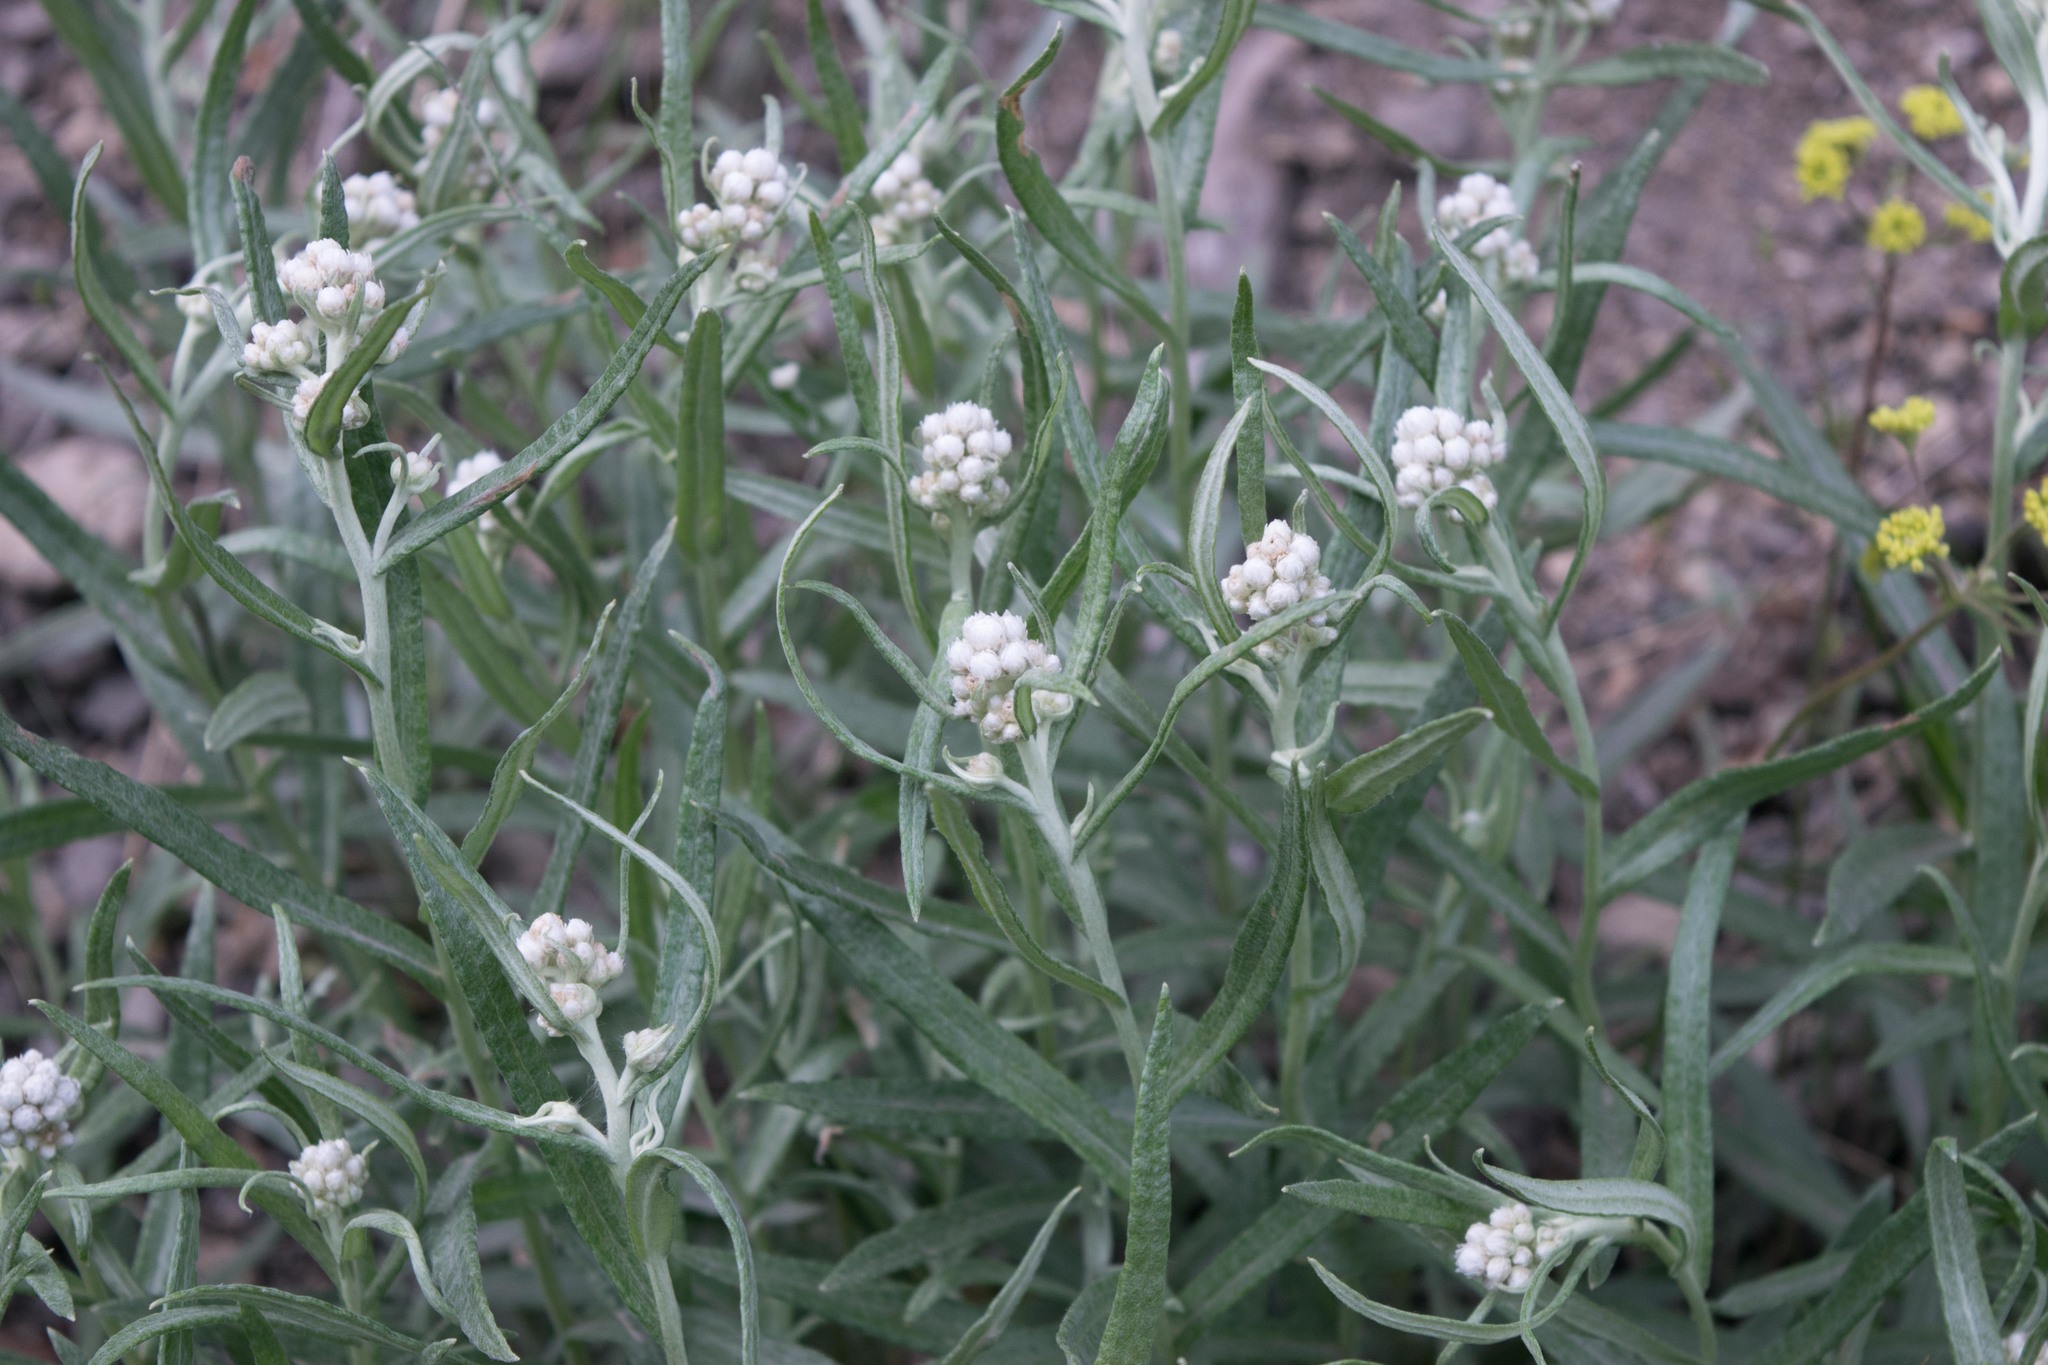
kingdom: Plantae
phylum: Tracheophyta
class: Magnoliopsida
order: Asterales
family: Asteraceae
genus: Anaphalis
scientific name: Anaphalis margaritacea
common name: Pearly everlasting
